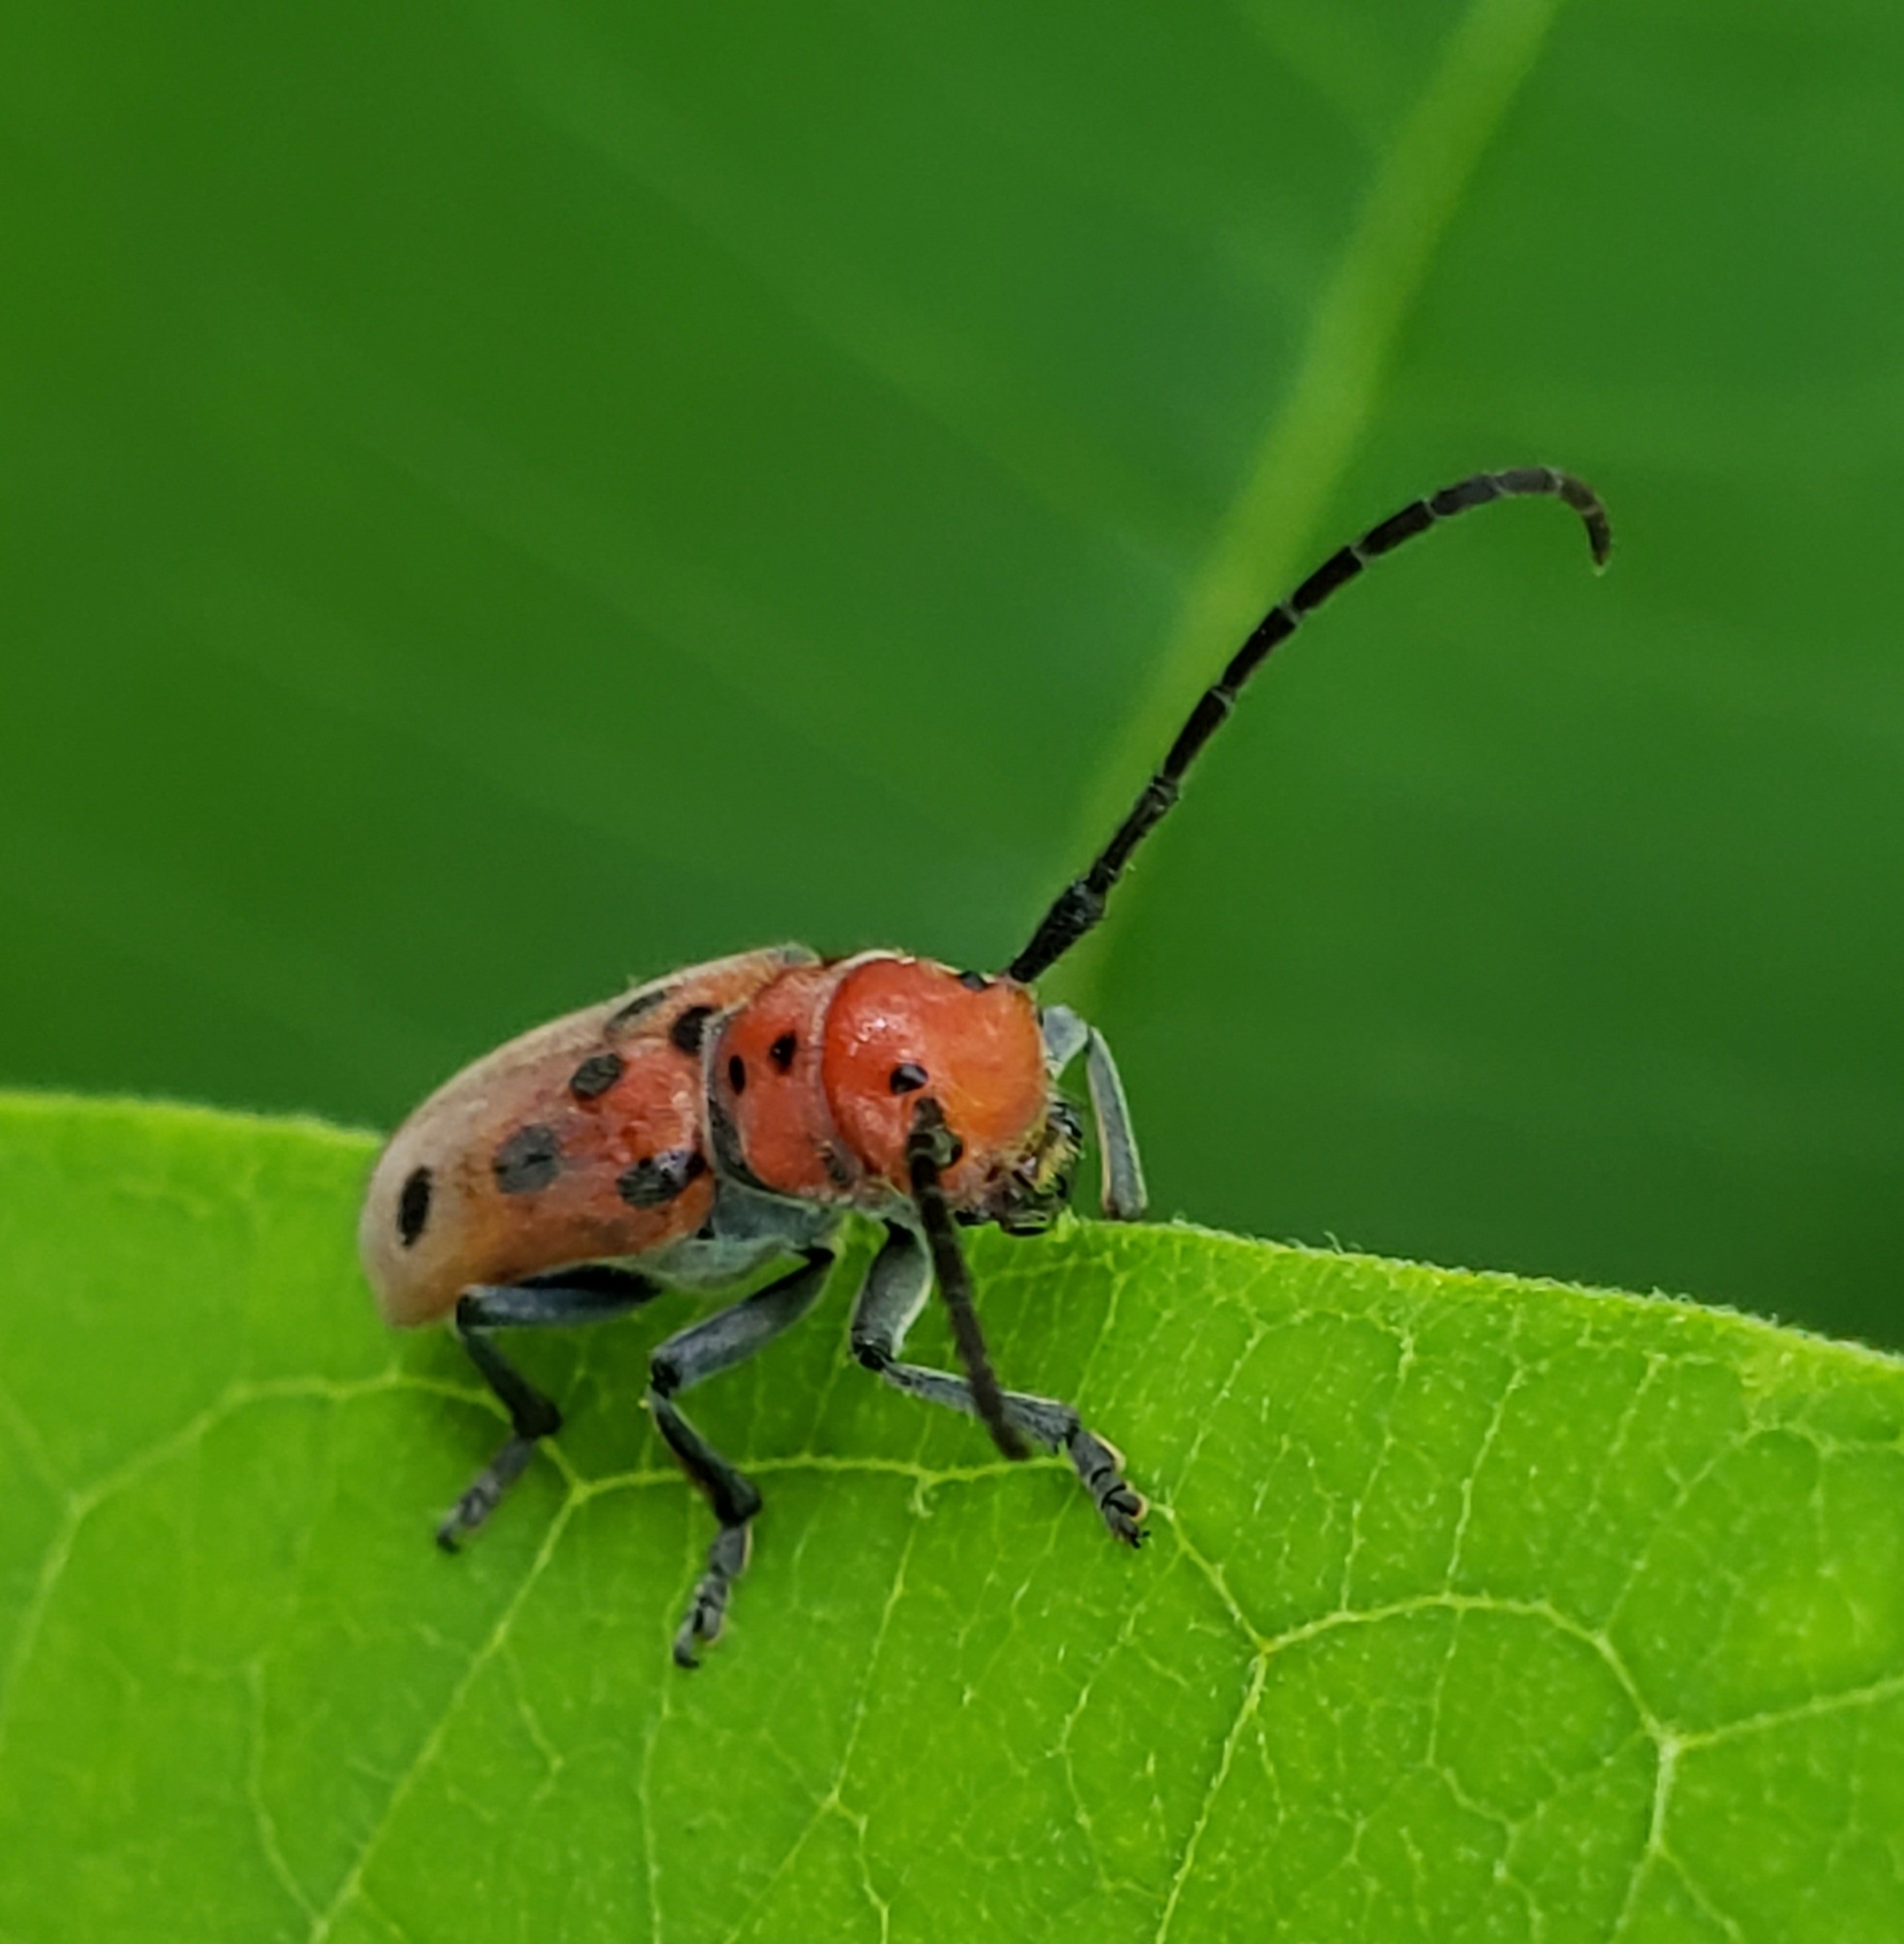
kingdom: Animalia
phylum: Arthropoda
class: Insecta
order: Coleoptera
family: Cerambycidae
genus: Tetraopes
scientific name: Tetraopes tetrophthalmus
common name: Red milkweed beetle
